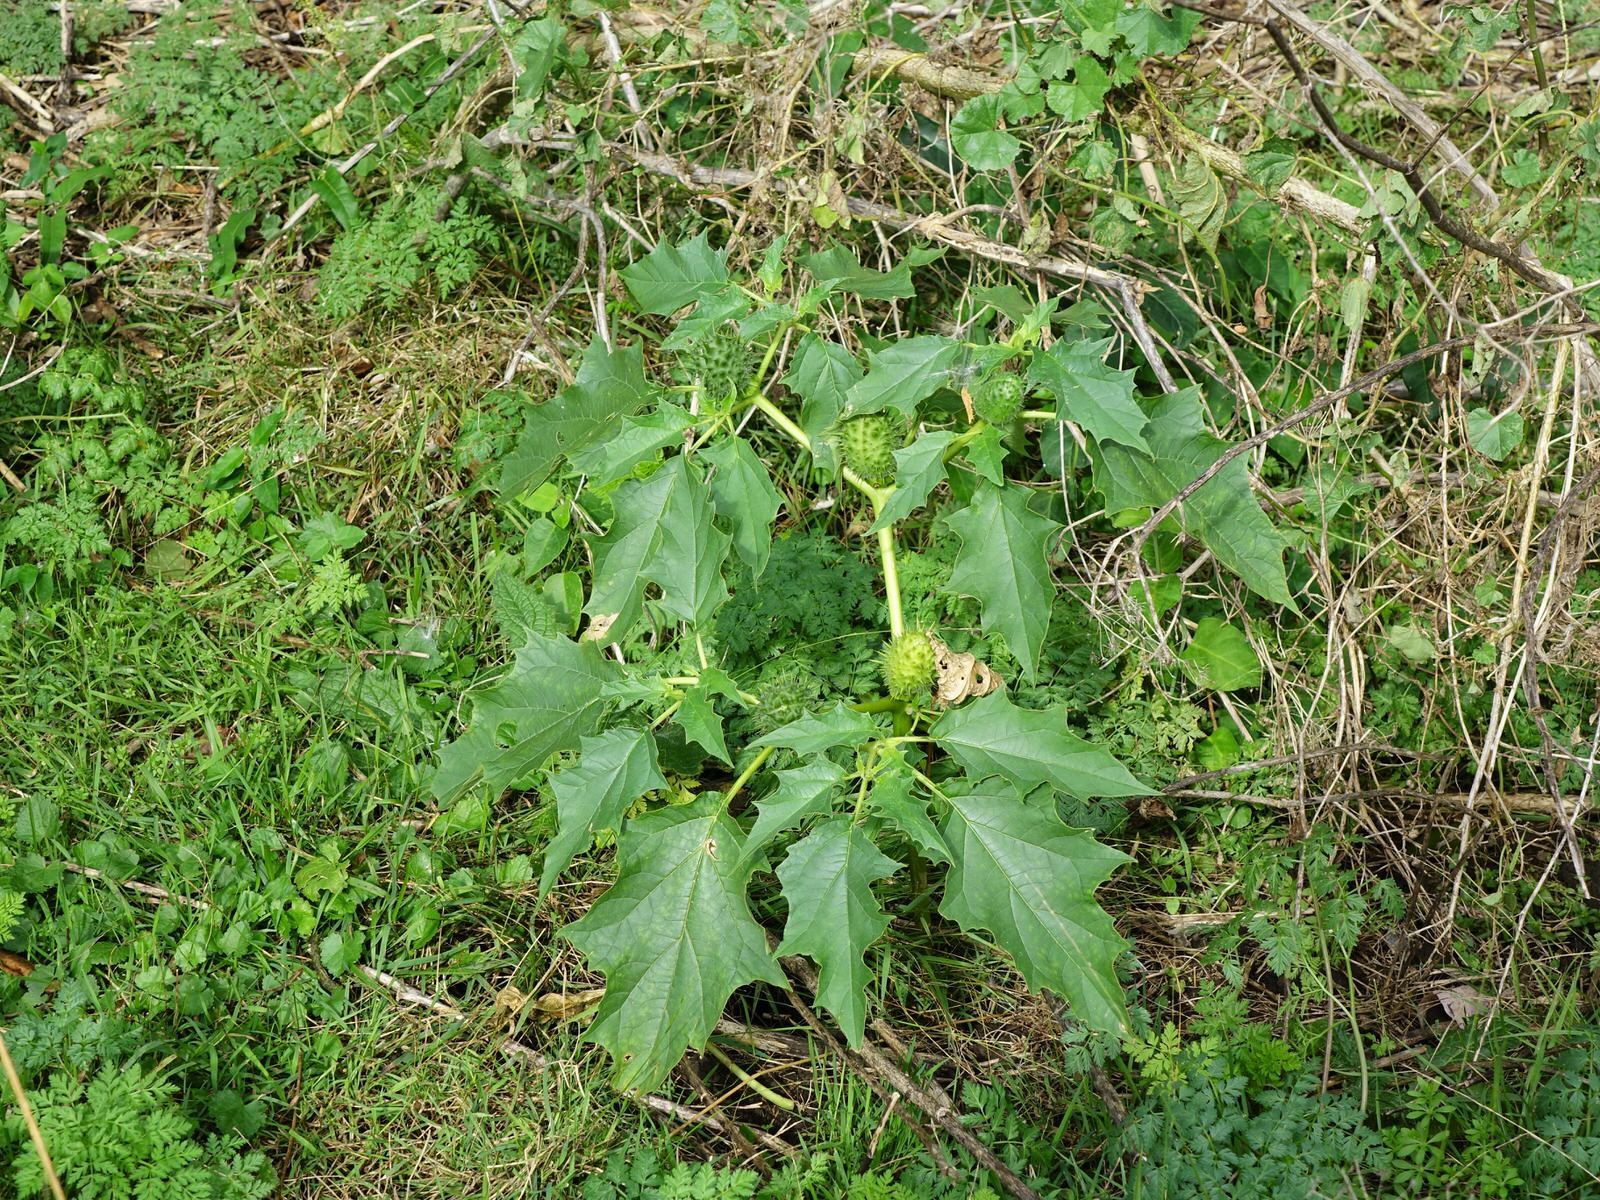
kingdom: Plantae
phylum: Tracheophyta
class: Magnoliopsida
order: Solanales
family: Solanaceae
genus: Datura
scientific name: Datura stramonium
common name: Thorn-apple
